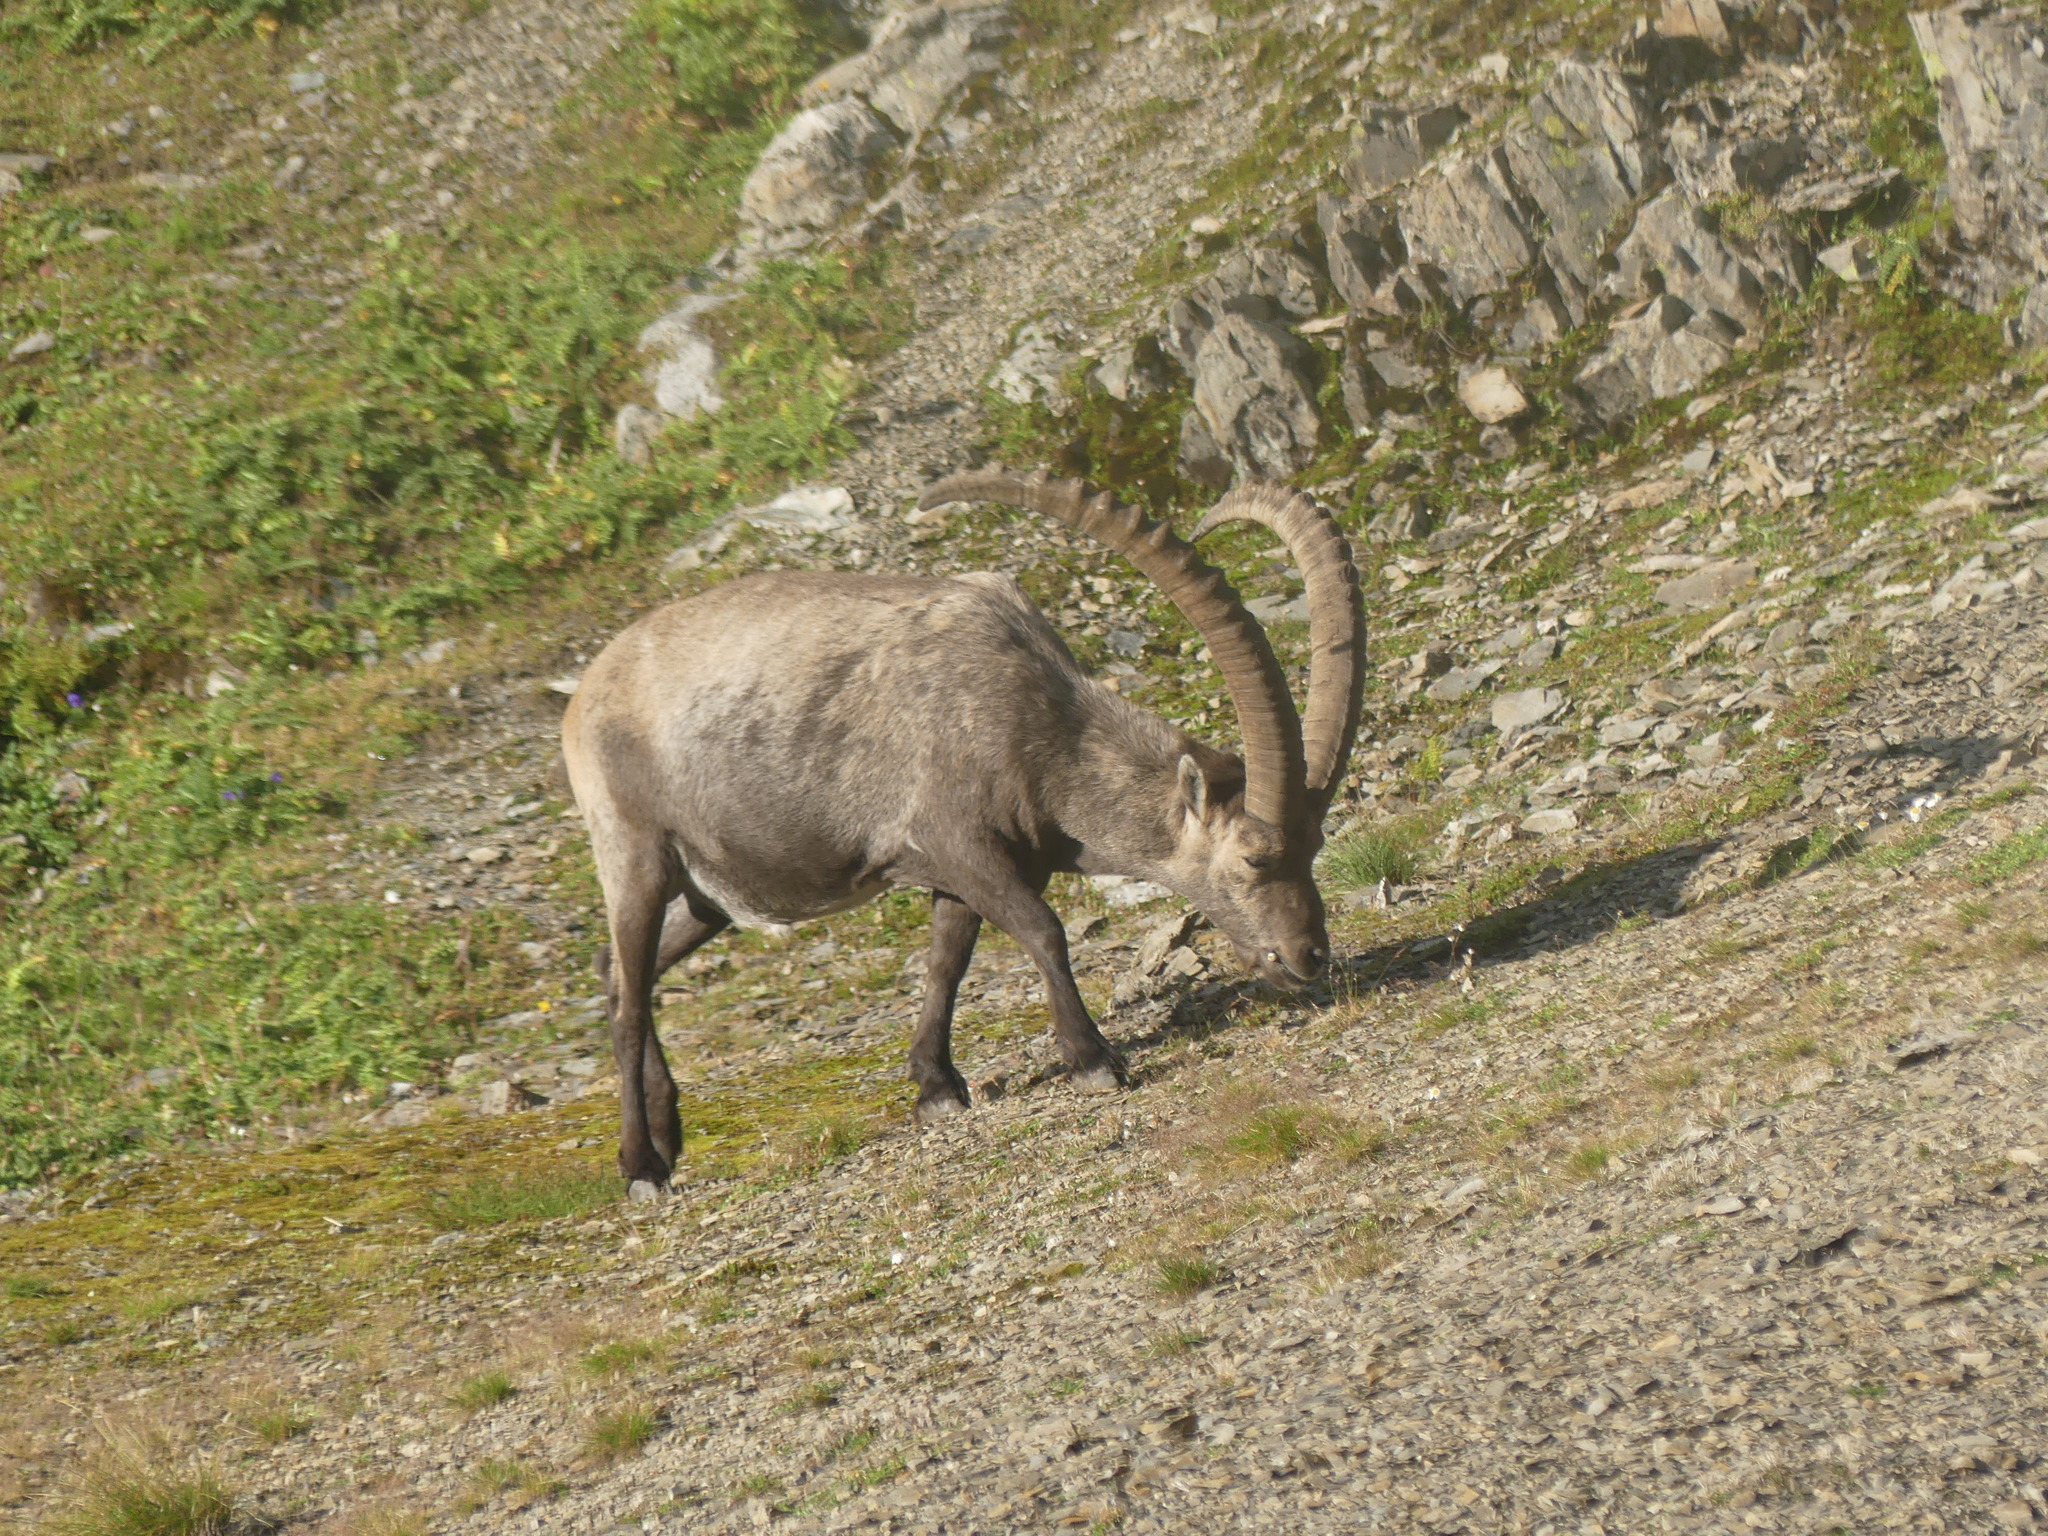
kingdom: Animalia
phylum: Chordata
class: Mammalia
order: Artiodactyla
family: Bovidae
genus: Capra
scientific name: Capra ibex
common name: Alpine ibex
